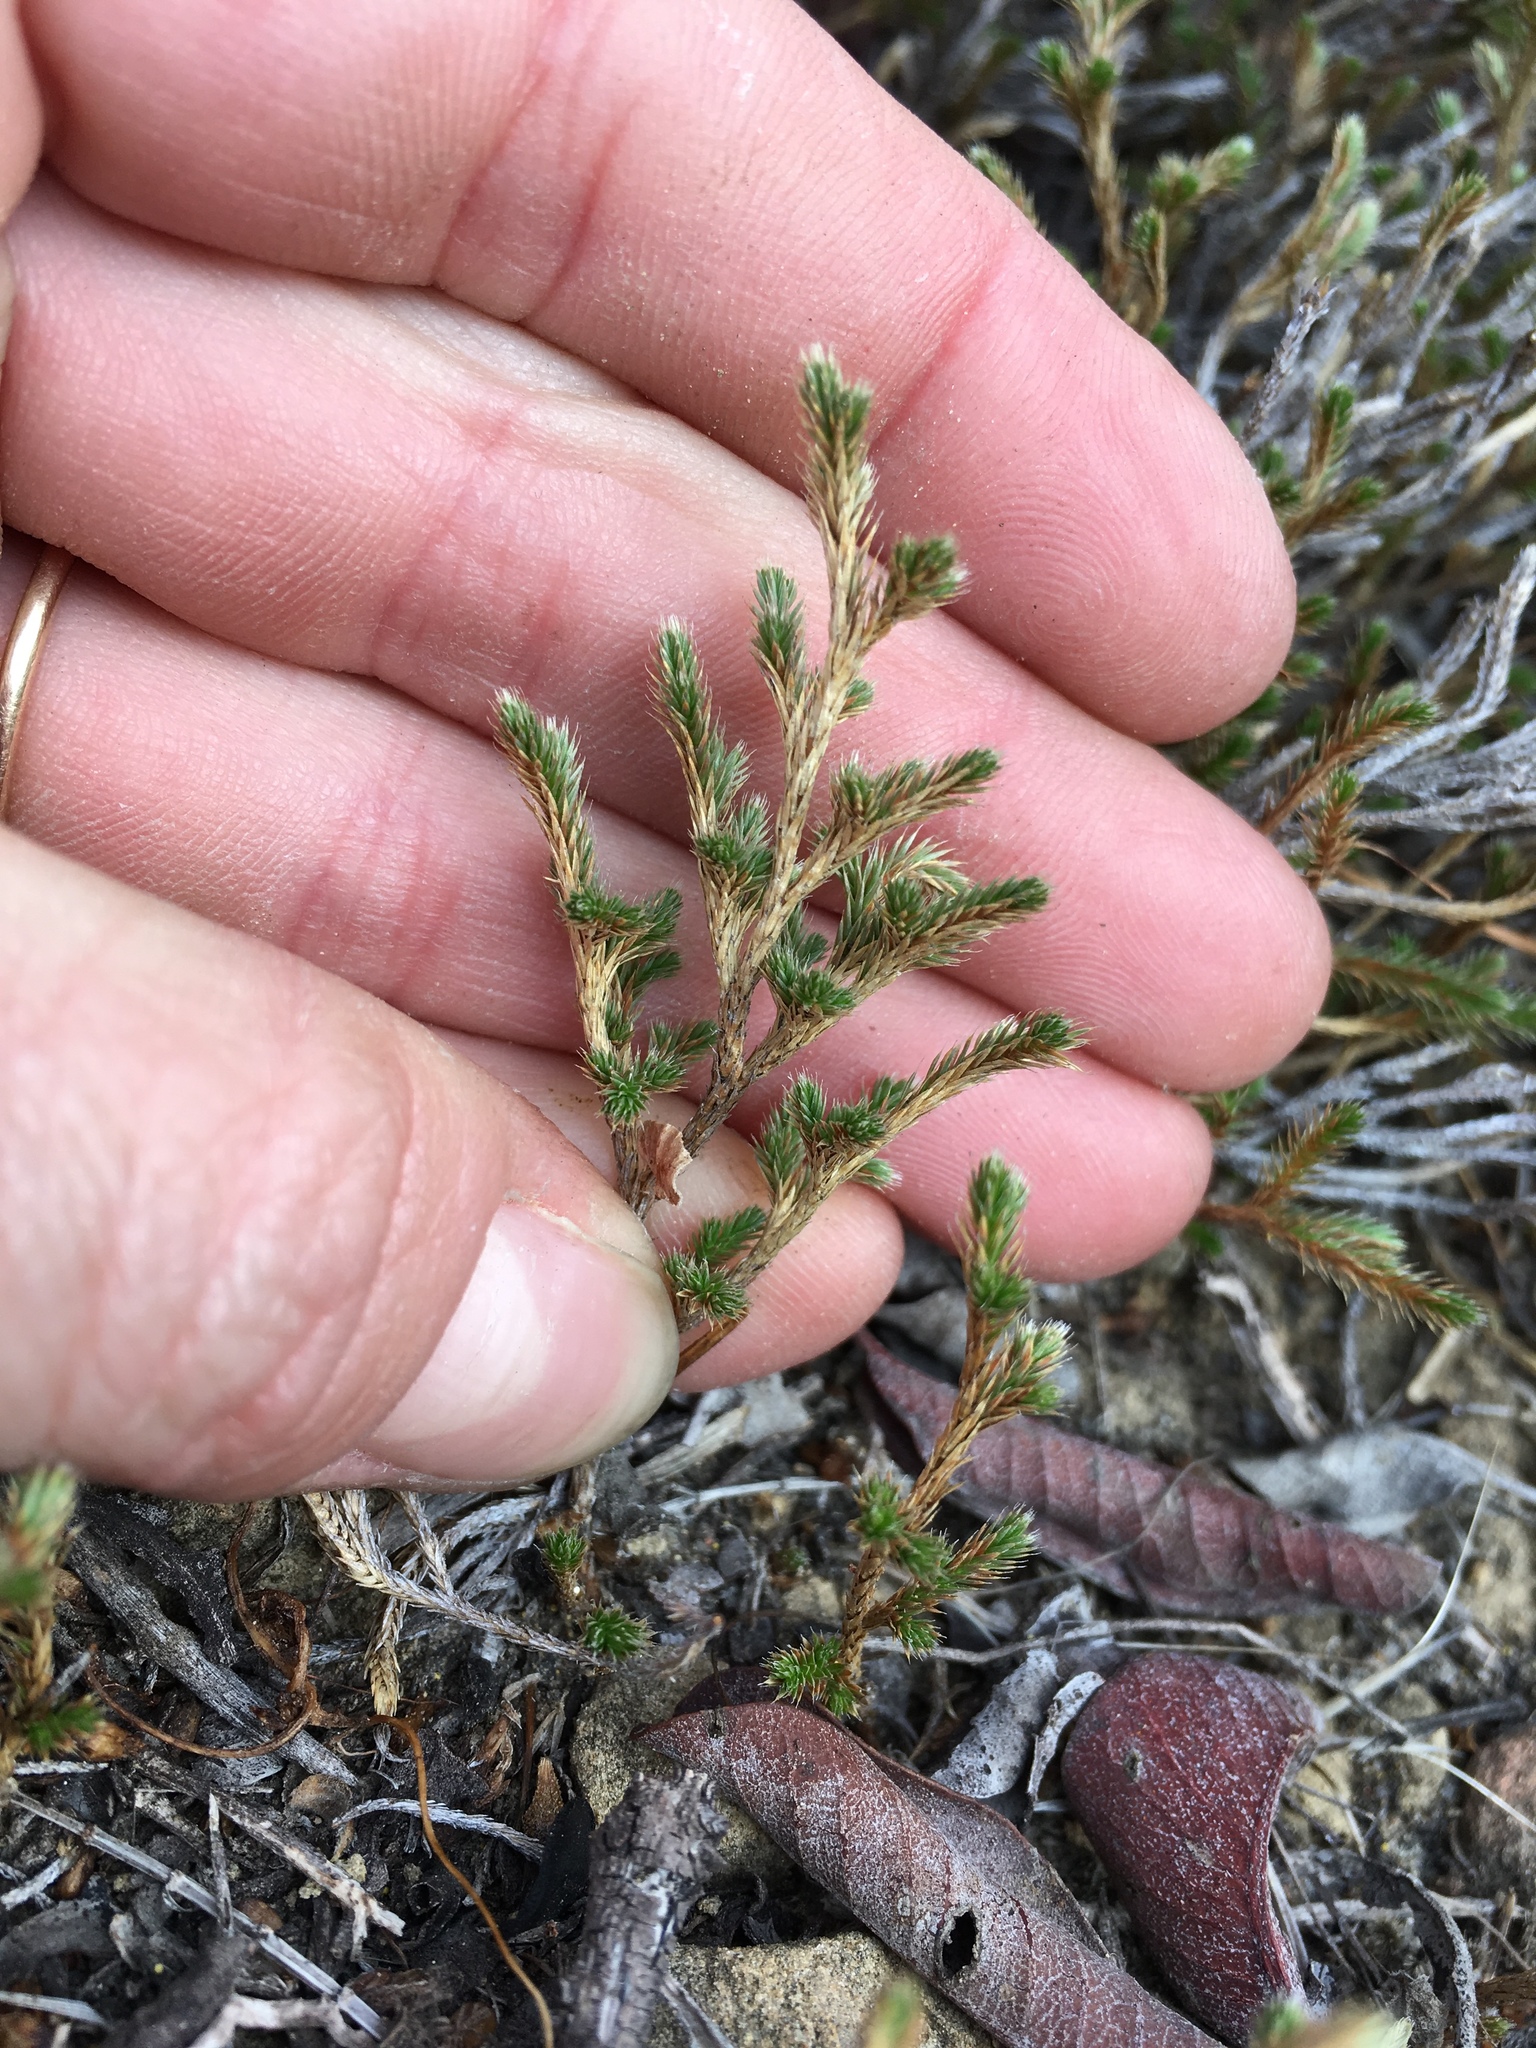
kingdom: Plantae
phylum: Tracheophyta
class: Lycopodiopsida
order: Selaginellales
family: Selaginellaceae
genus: Selaginella
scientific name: Selaginella bigelovii
